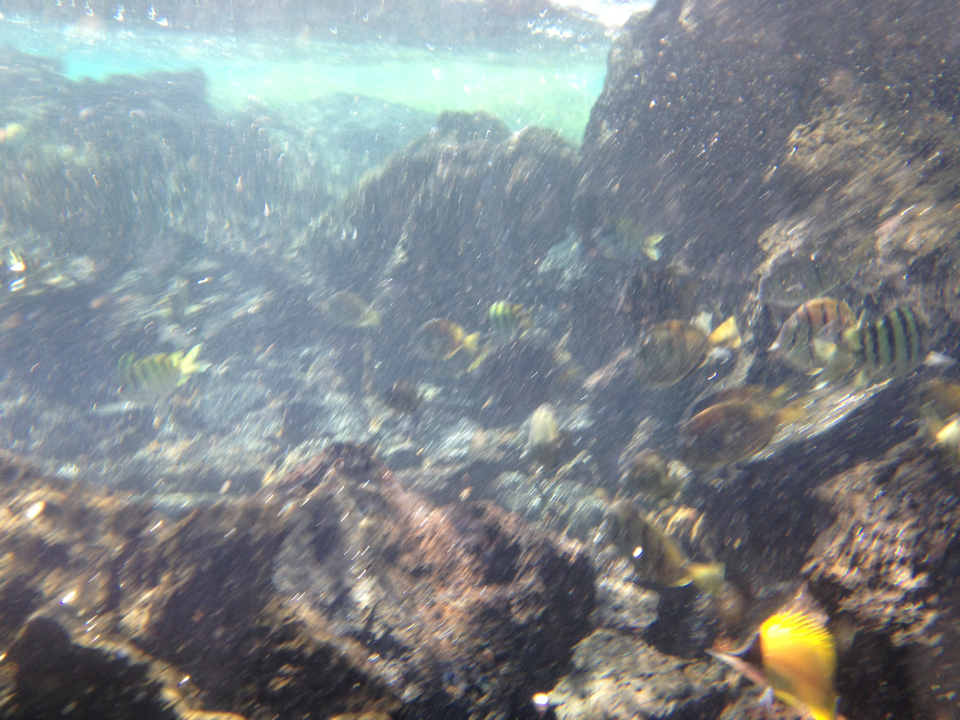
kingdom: Animalia
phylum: Chordata
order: Perciformes
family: Chaetodontidae
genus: Forcipiger
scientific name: Forcipiger flavissimus
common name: Forcepsfish
